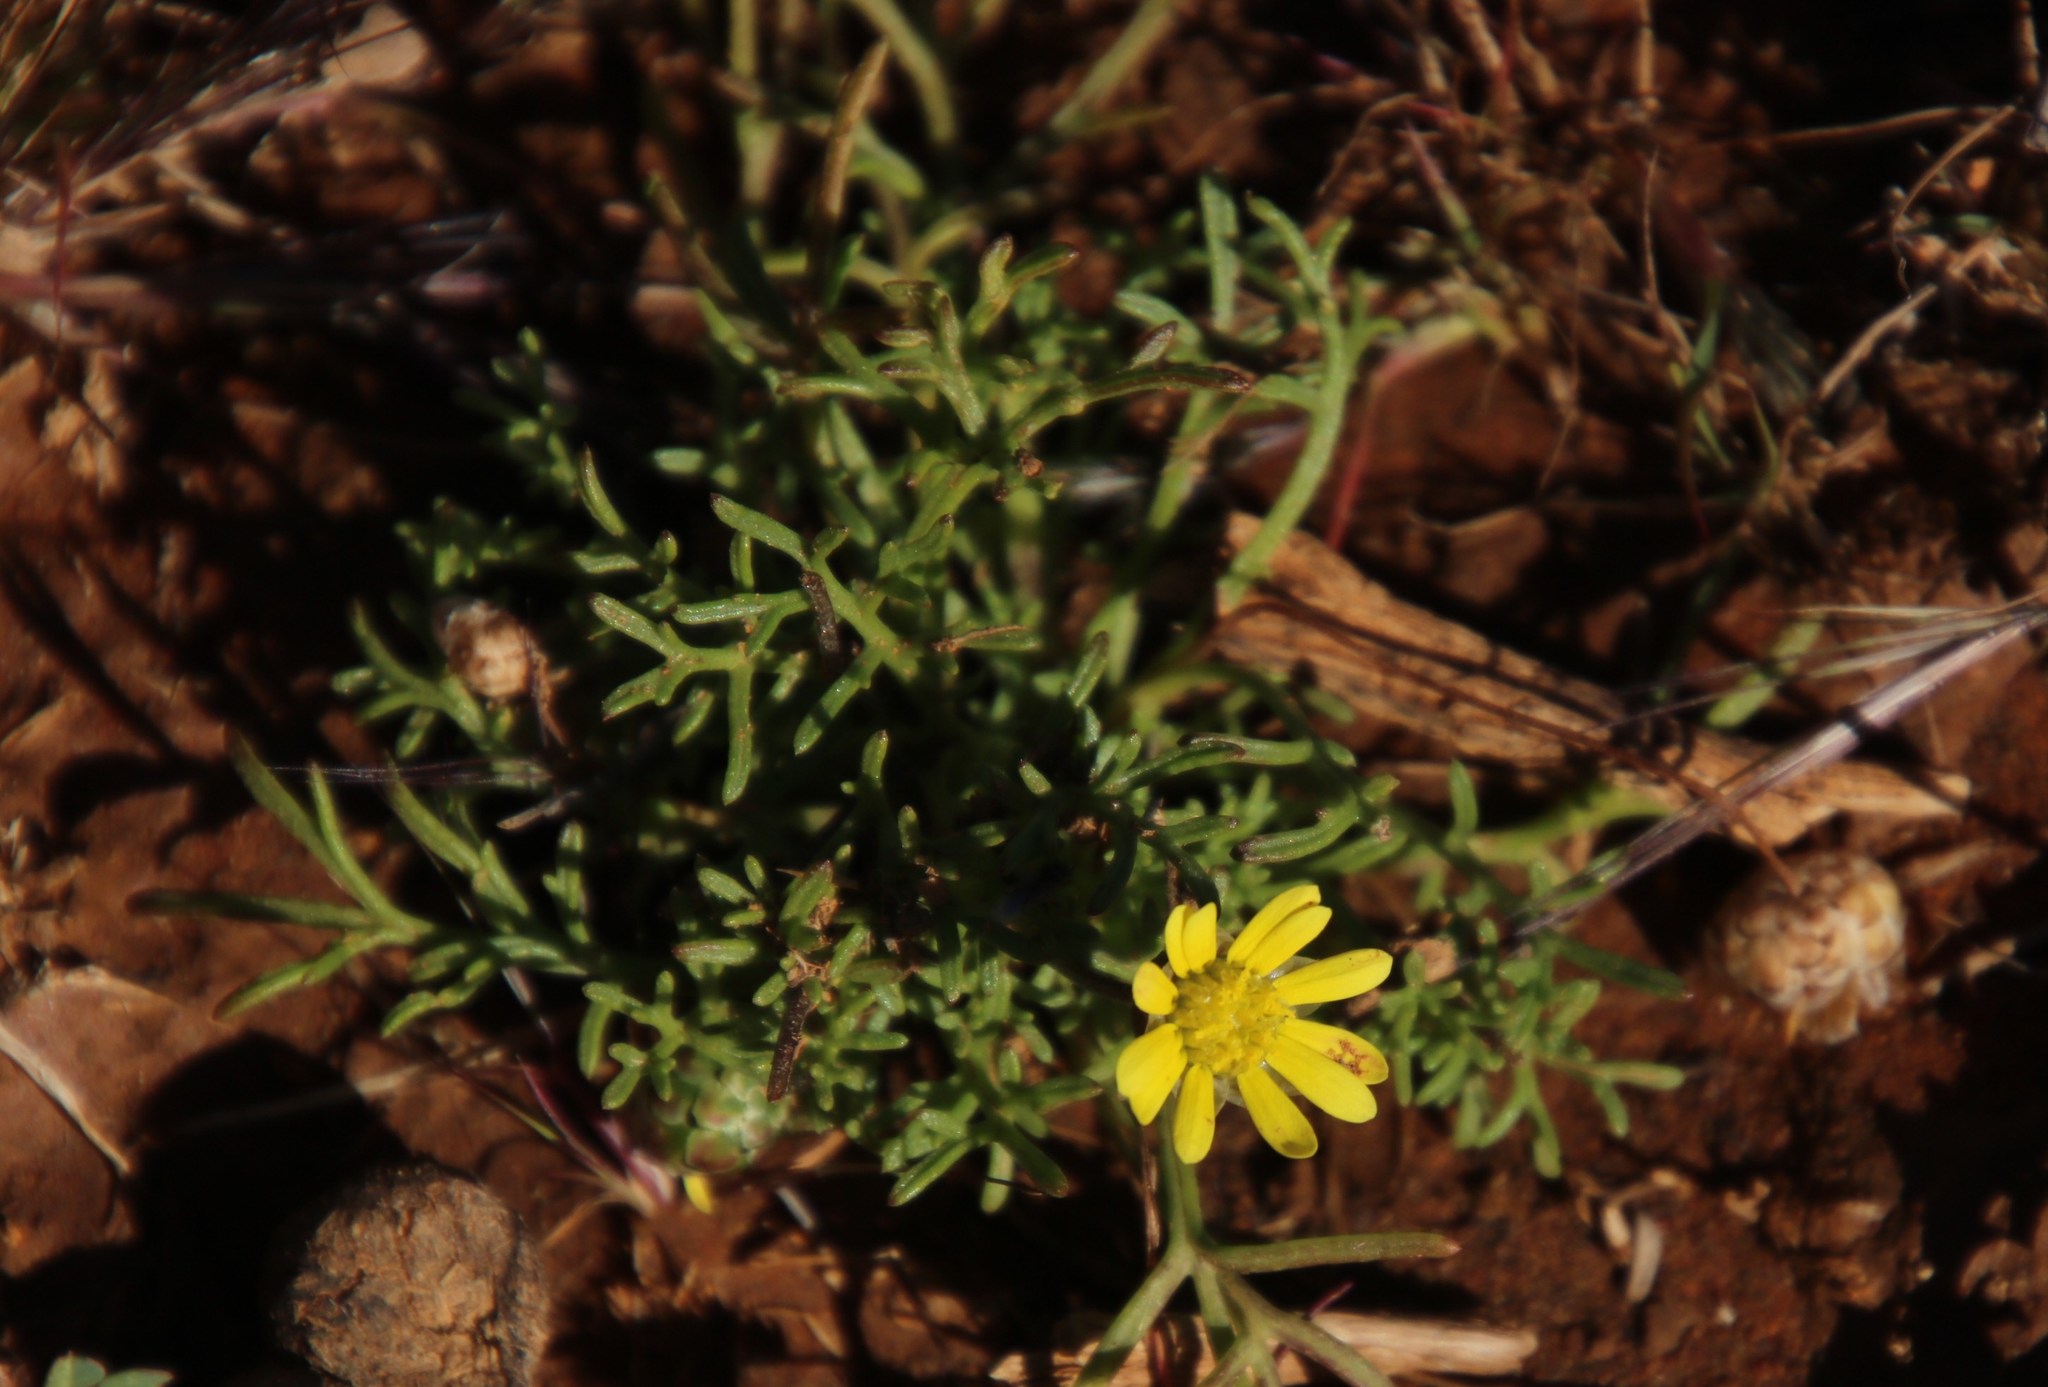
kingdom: Plantae
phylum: Tracheophyta
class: Magnoliopsida
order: Asterales
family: Asteraceae
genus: Ursinia
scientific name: Ursinia nana
